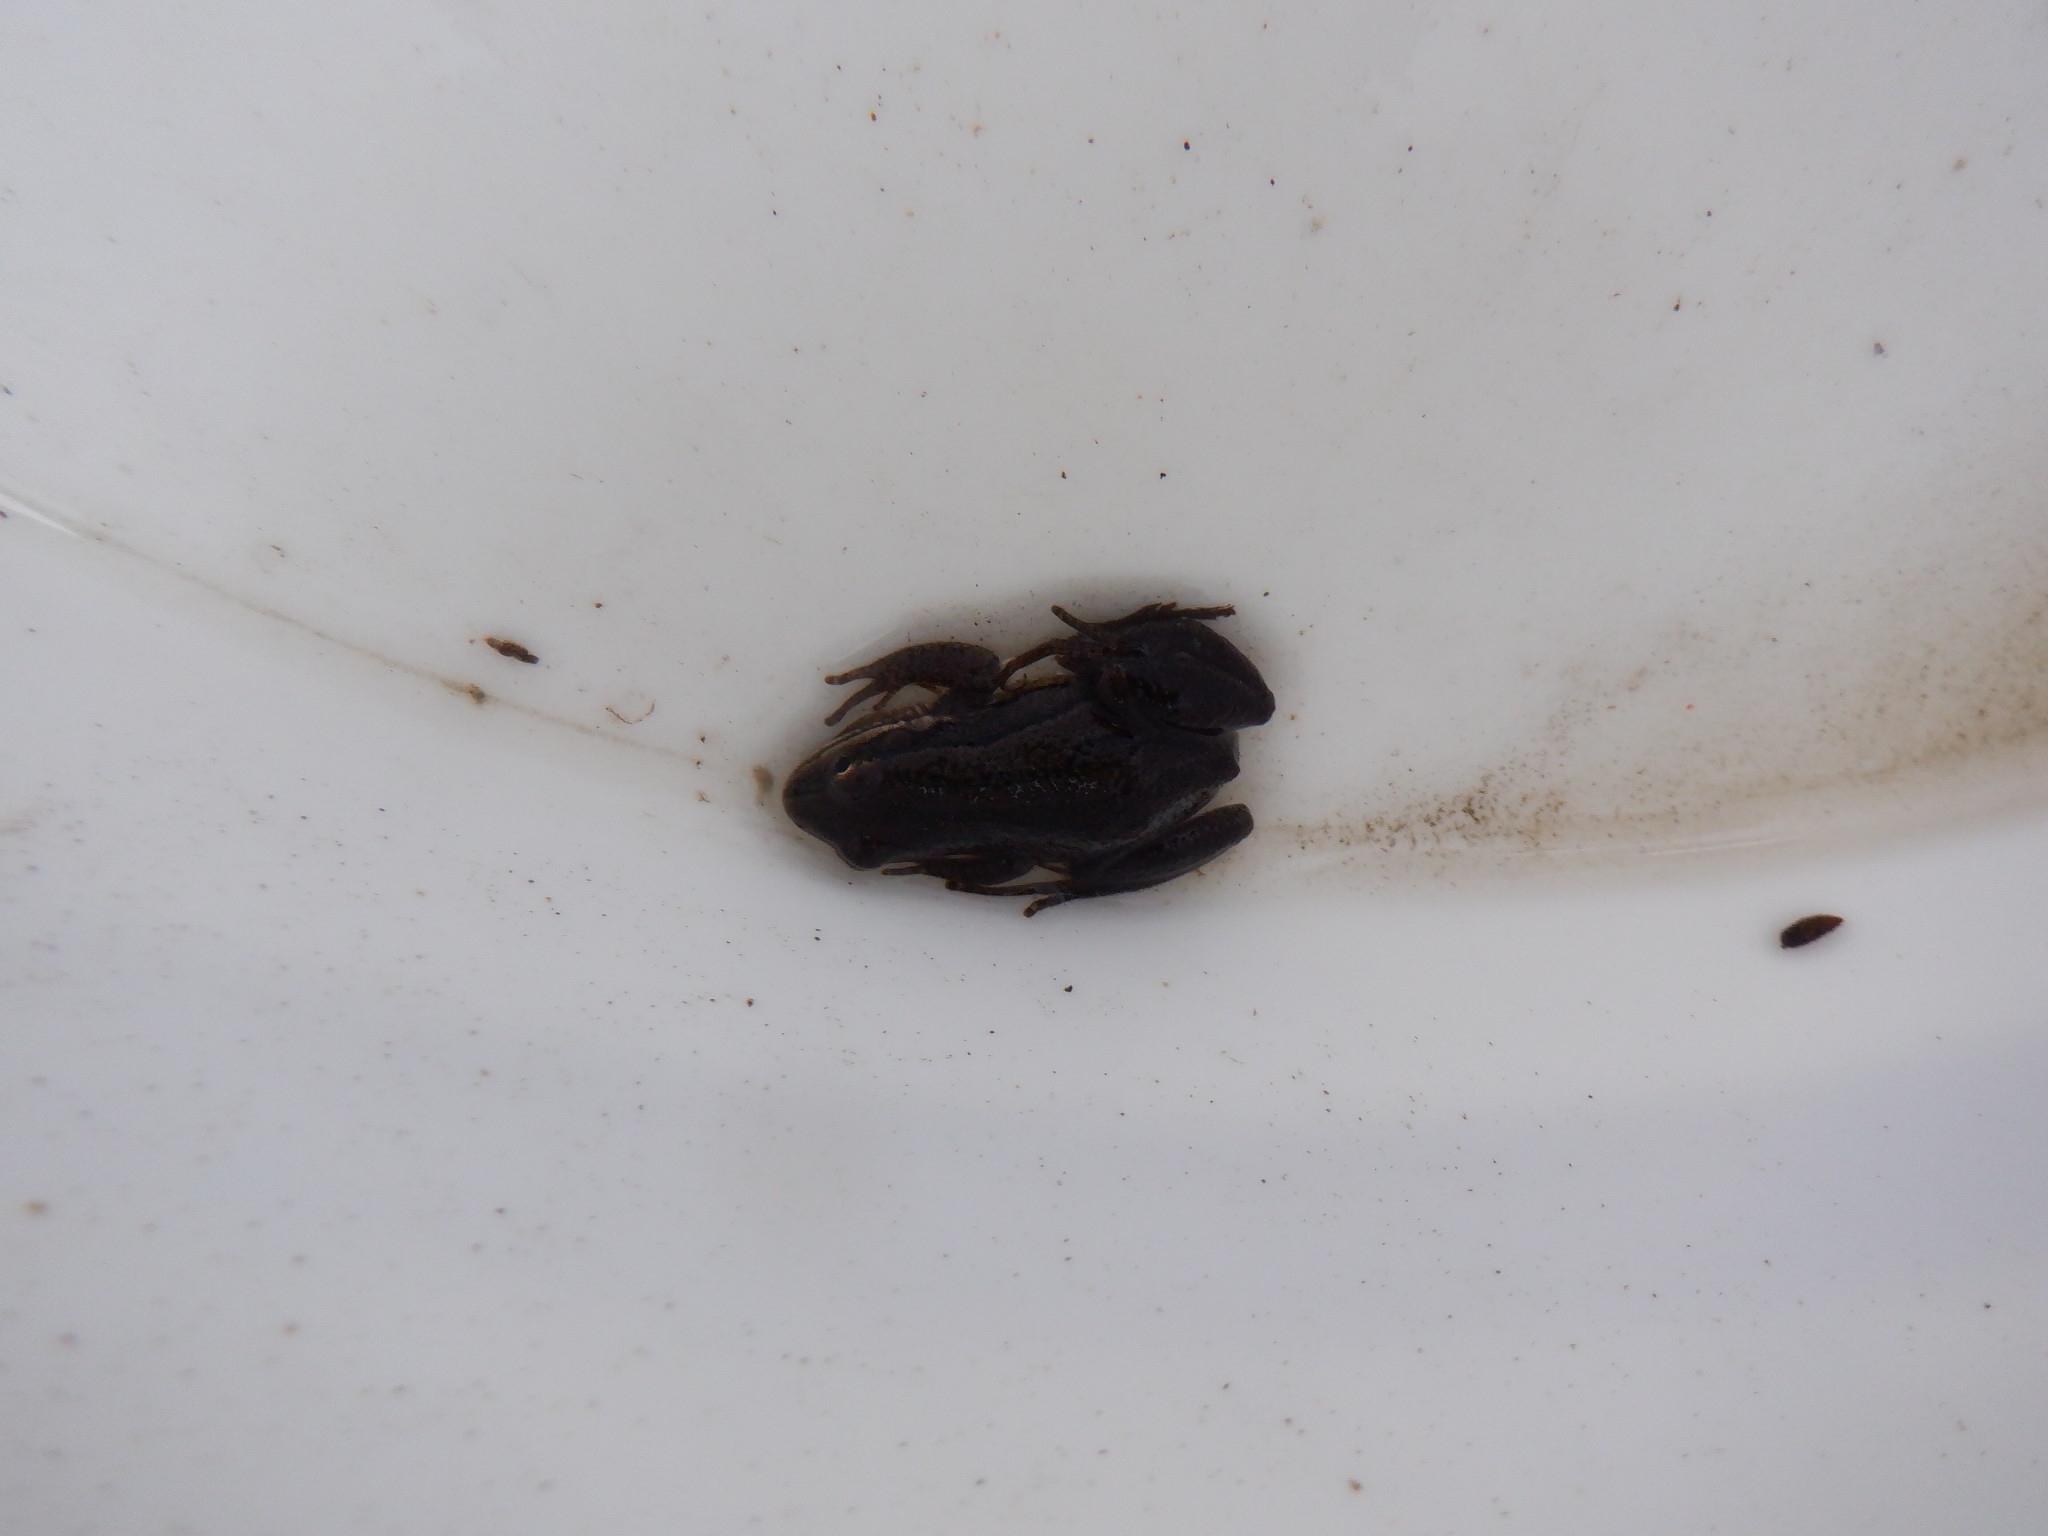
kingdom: Animalia
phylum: Chordata
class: Amphibia
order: Anura
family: Hylidae
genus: Pseudacris
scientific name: Pseudacris maculata
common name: Boreal chorus frog
